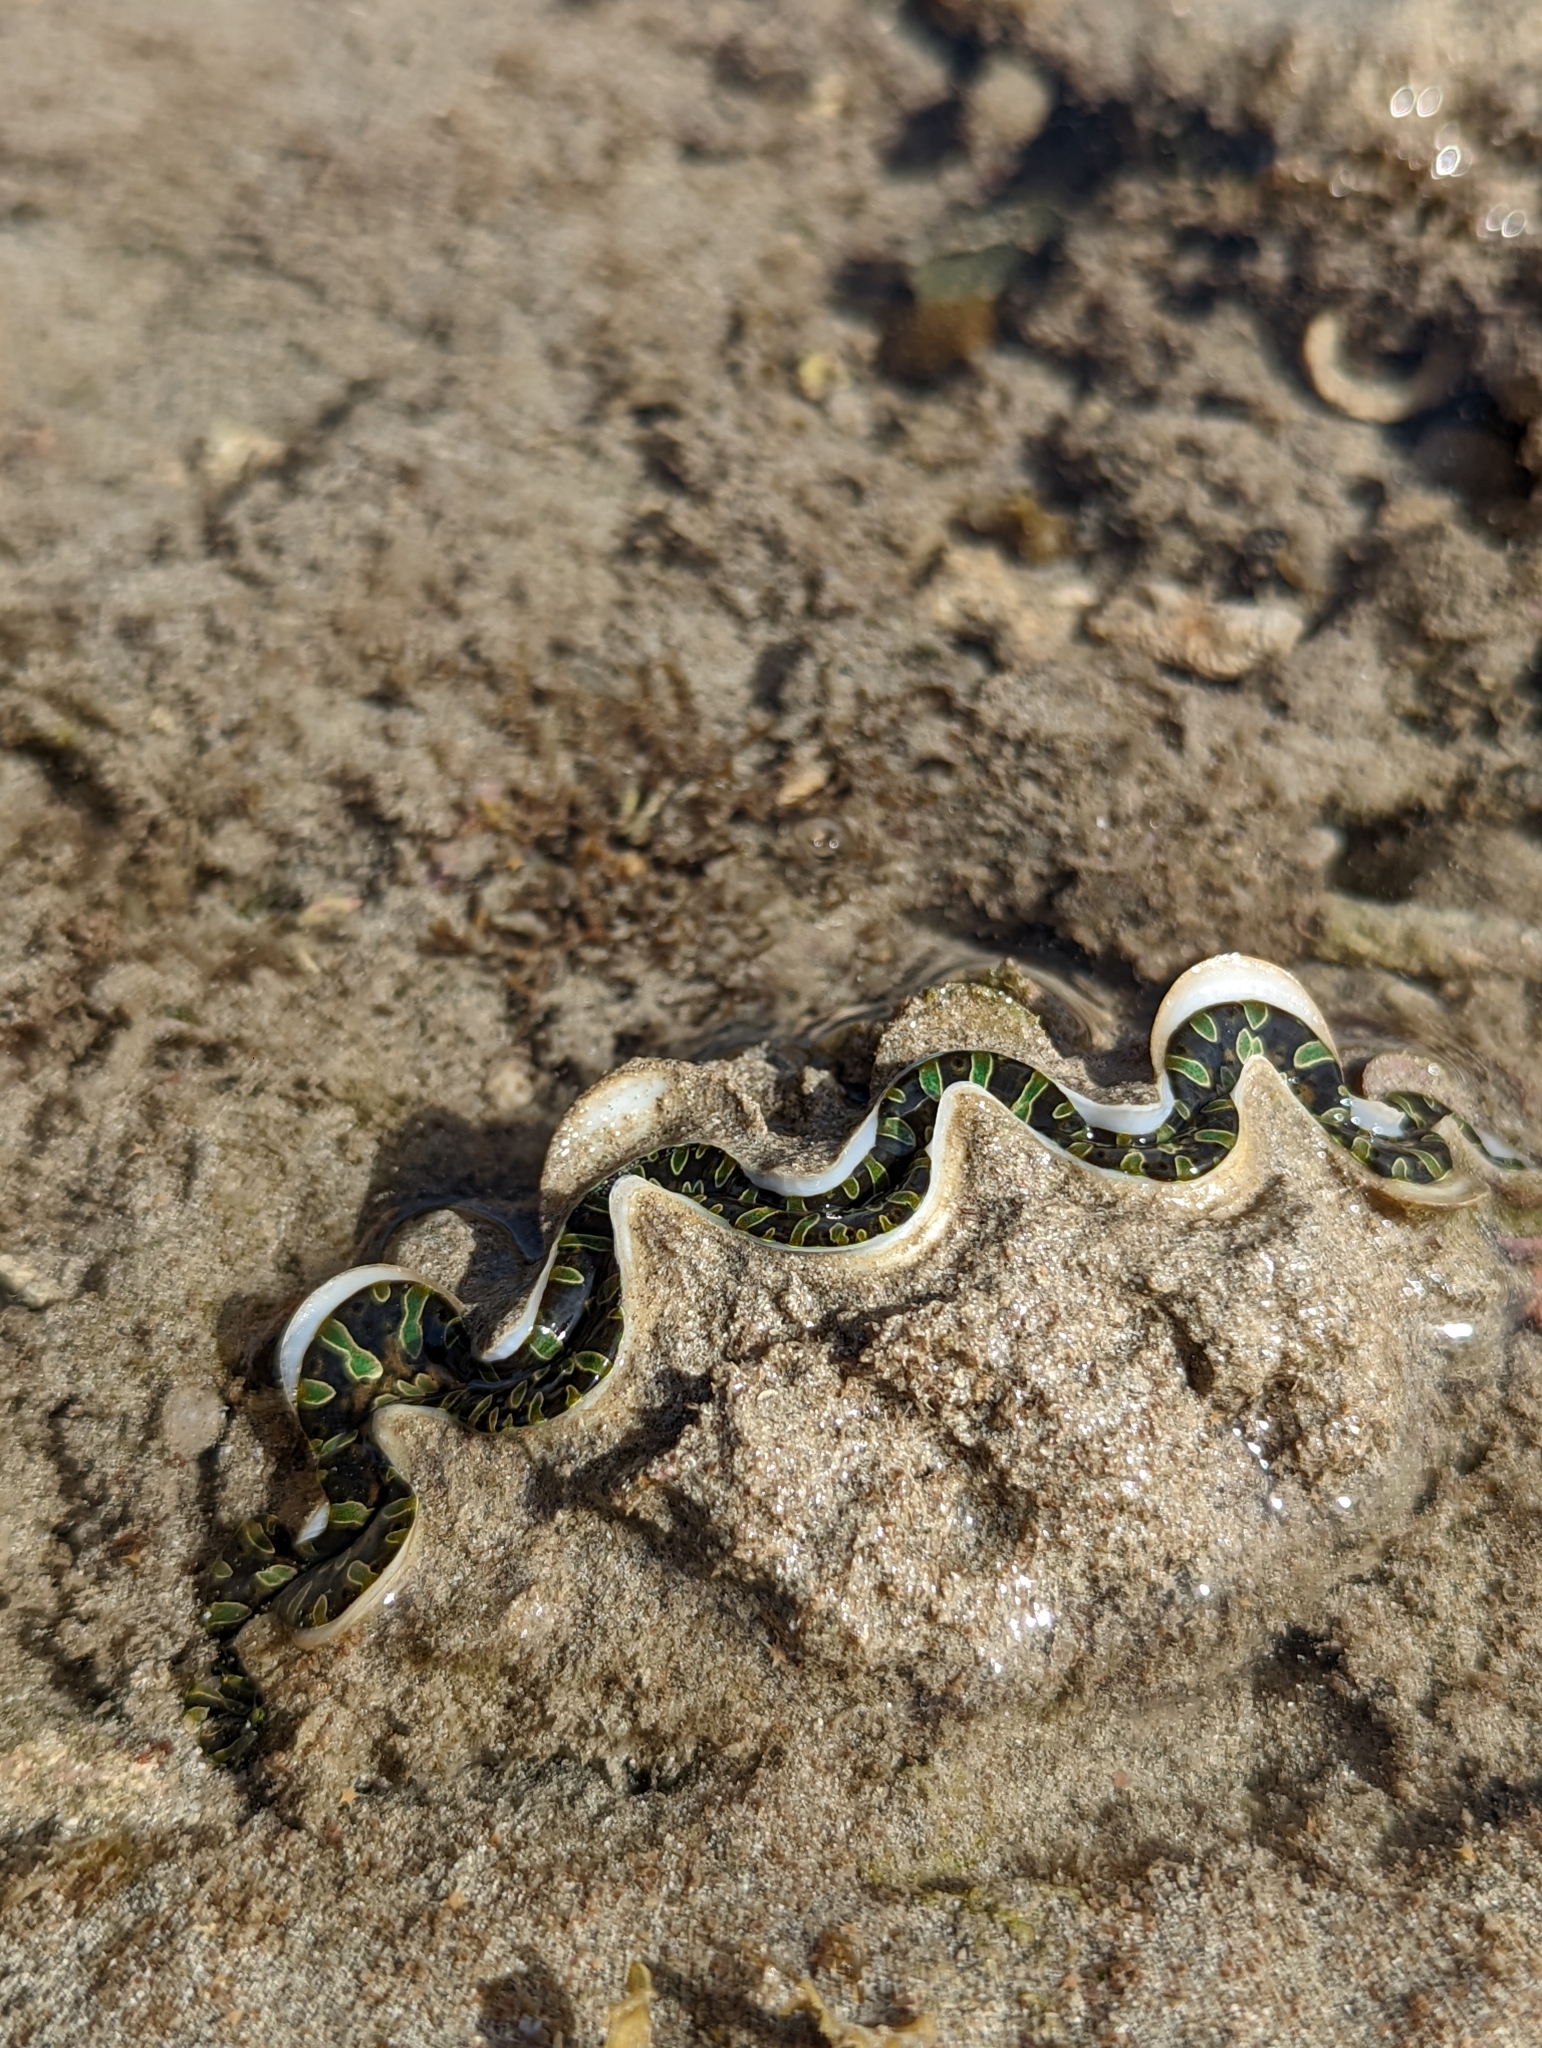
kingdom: Animalia
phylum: Mollusca
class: Bivalvia
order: Cardiida
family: Cardiidae
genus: Tridacna
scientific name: Tridacna noae
